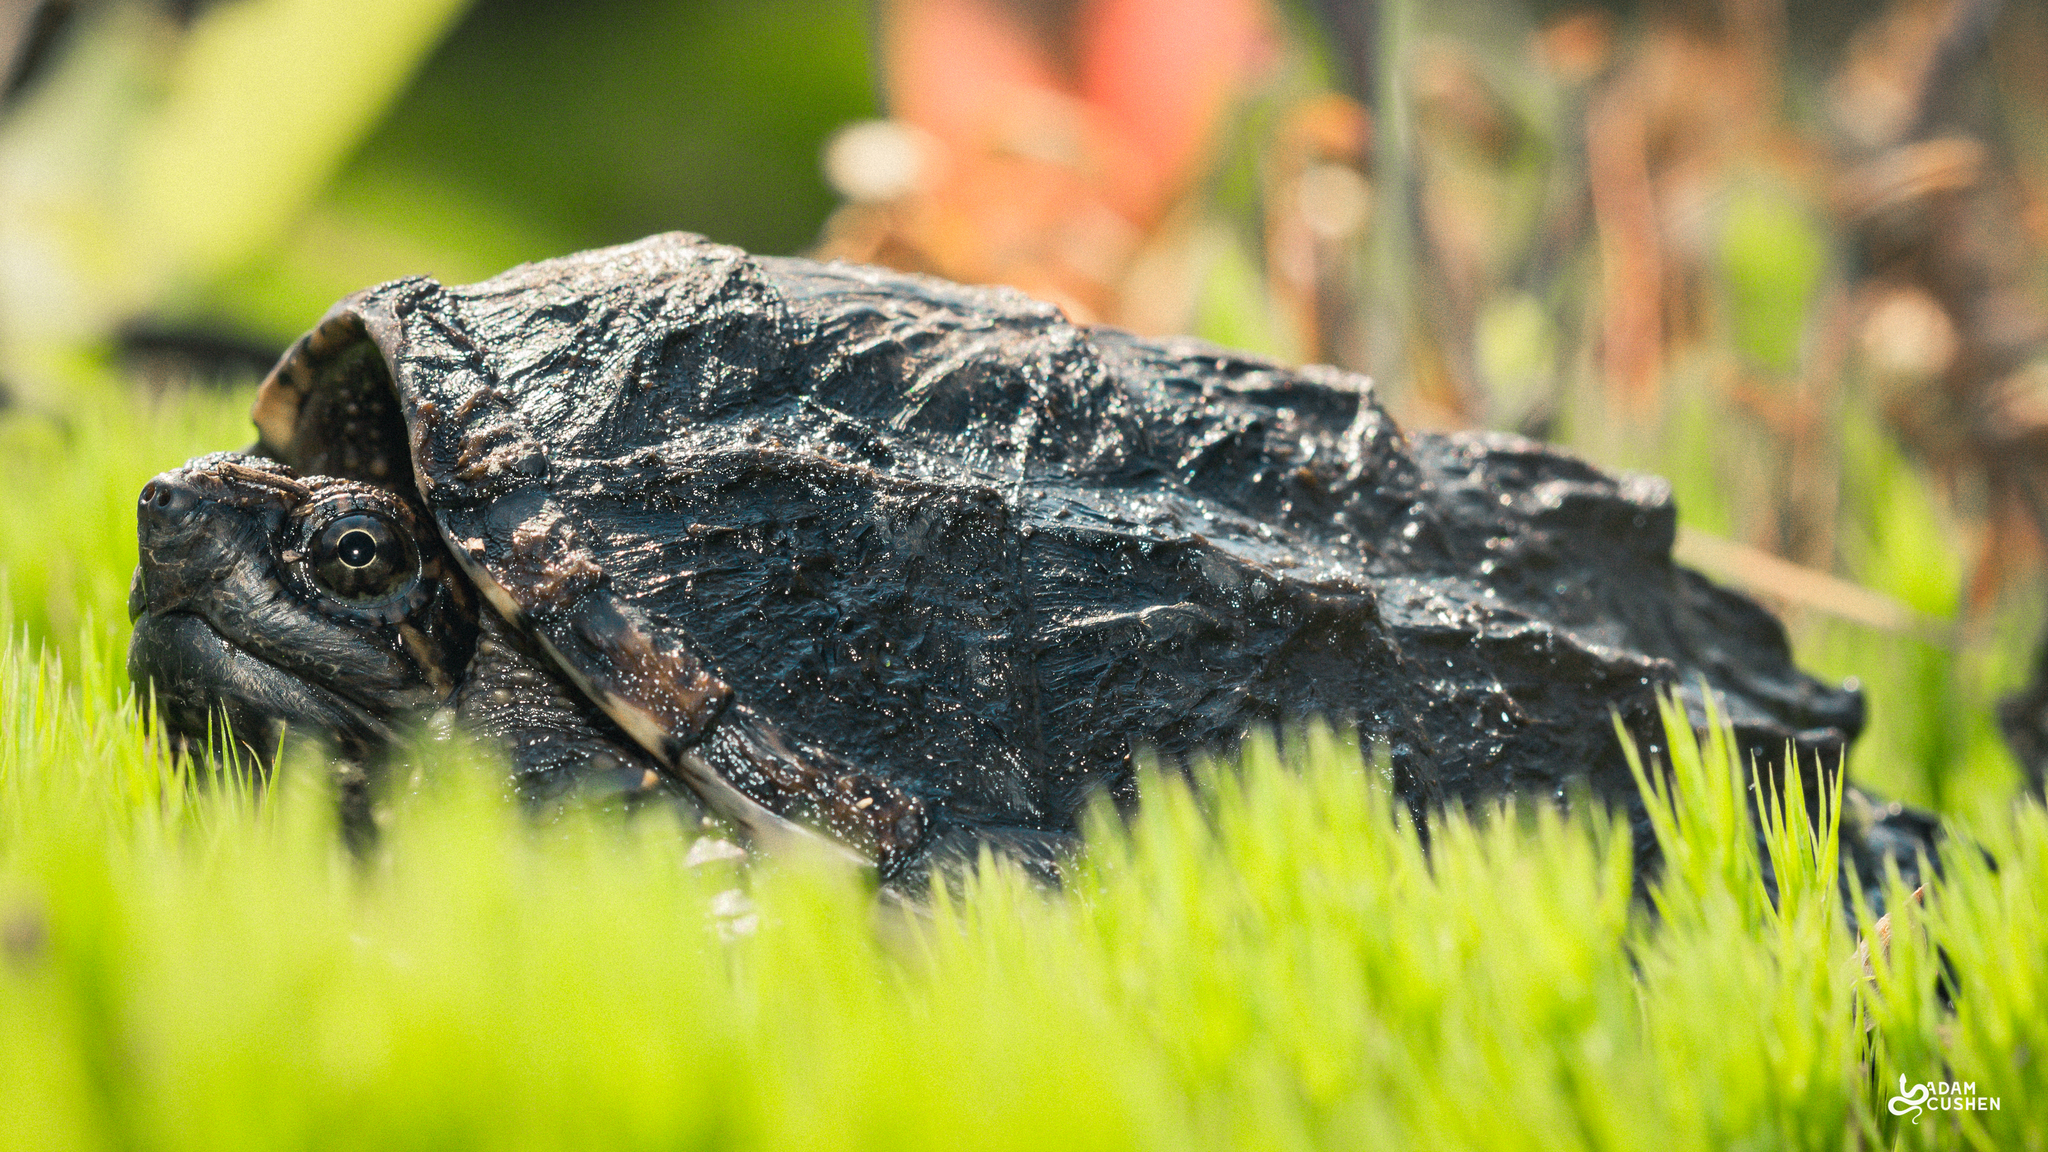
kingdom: Animalia
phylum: Chordata
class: Testudines
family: Chelydridae
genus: Chelydra
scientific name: Chelydra serpentina
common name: Common snapping turtle
